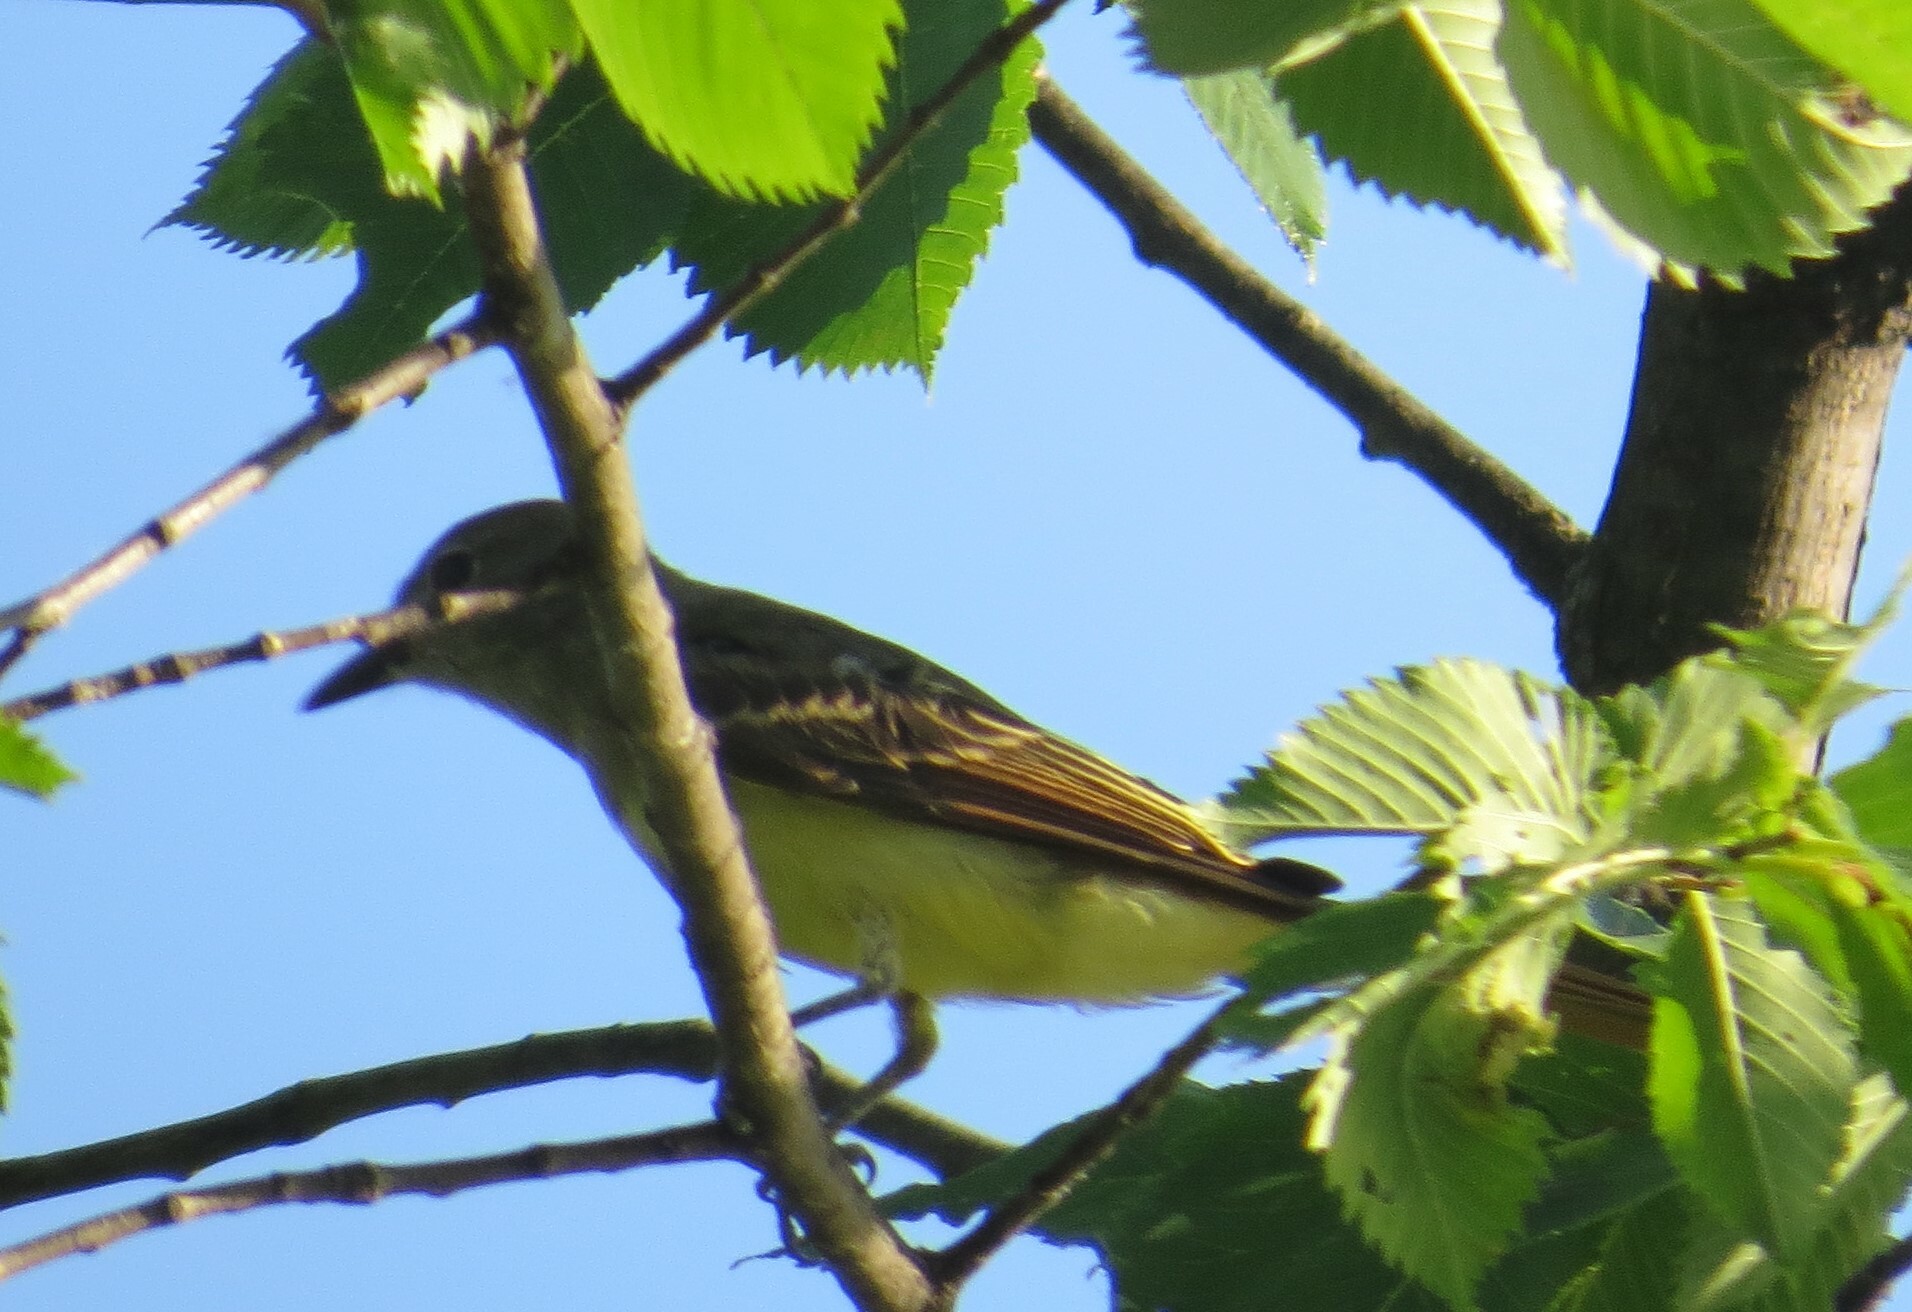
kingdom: Animalia
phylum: Chordata
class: Aves
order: Passeriformes
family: Tyrannidae
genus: Myiarchus
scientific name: Myiarchus crinitus
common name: Great crested flycatcher
